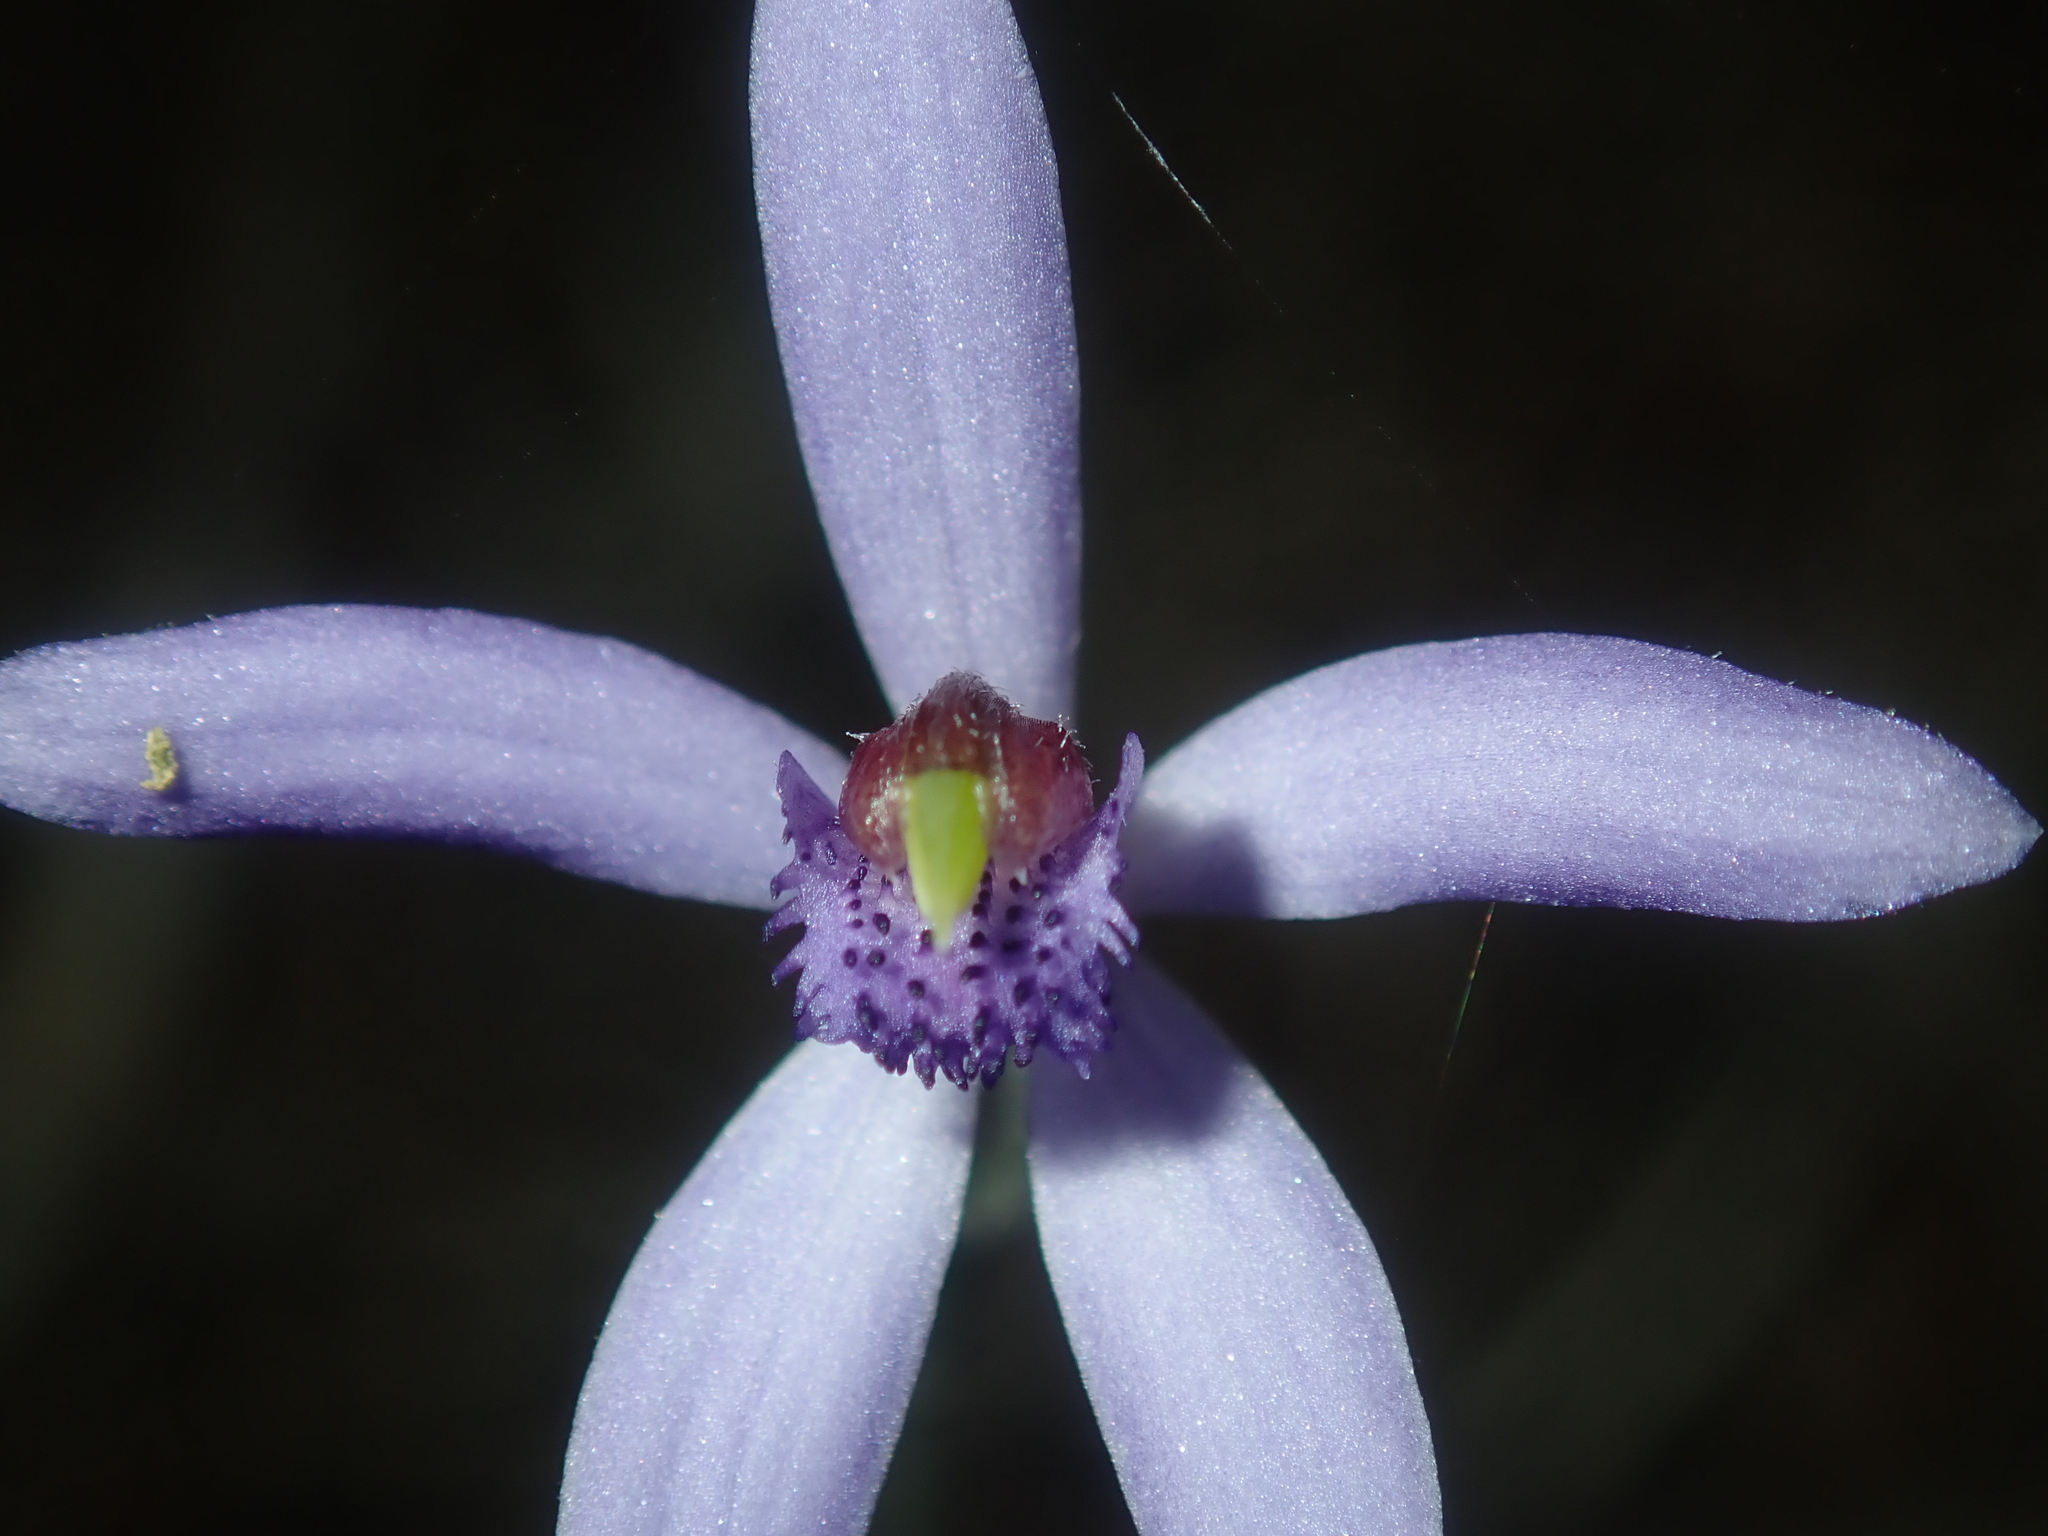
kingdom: Plantae
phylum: Tracheophyta
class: Liliopsida
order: Asparagales
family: Orchidaceae
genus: Pheladenia
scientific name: Pheladenia deformis
